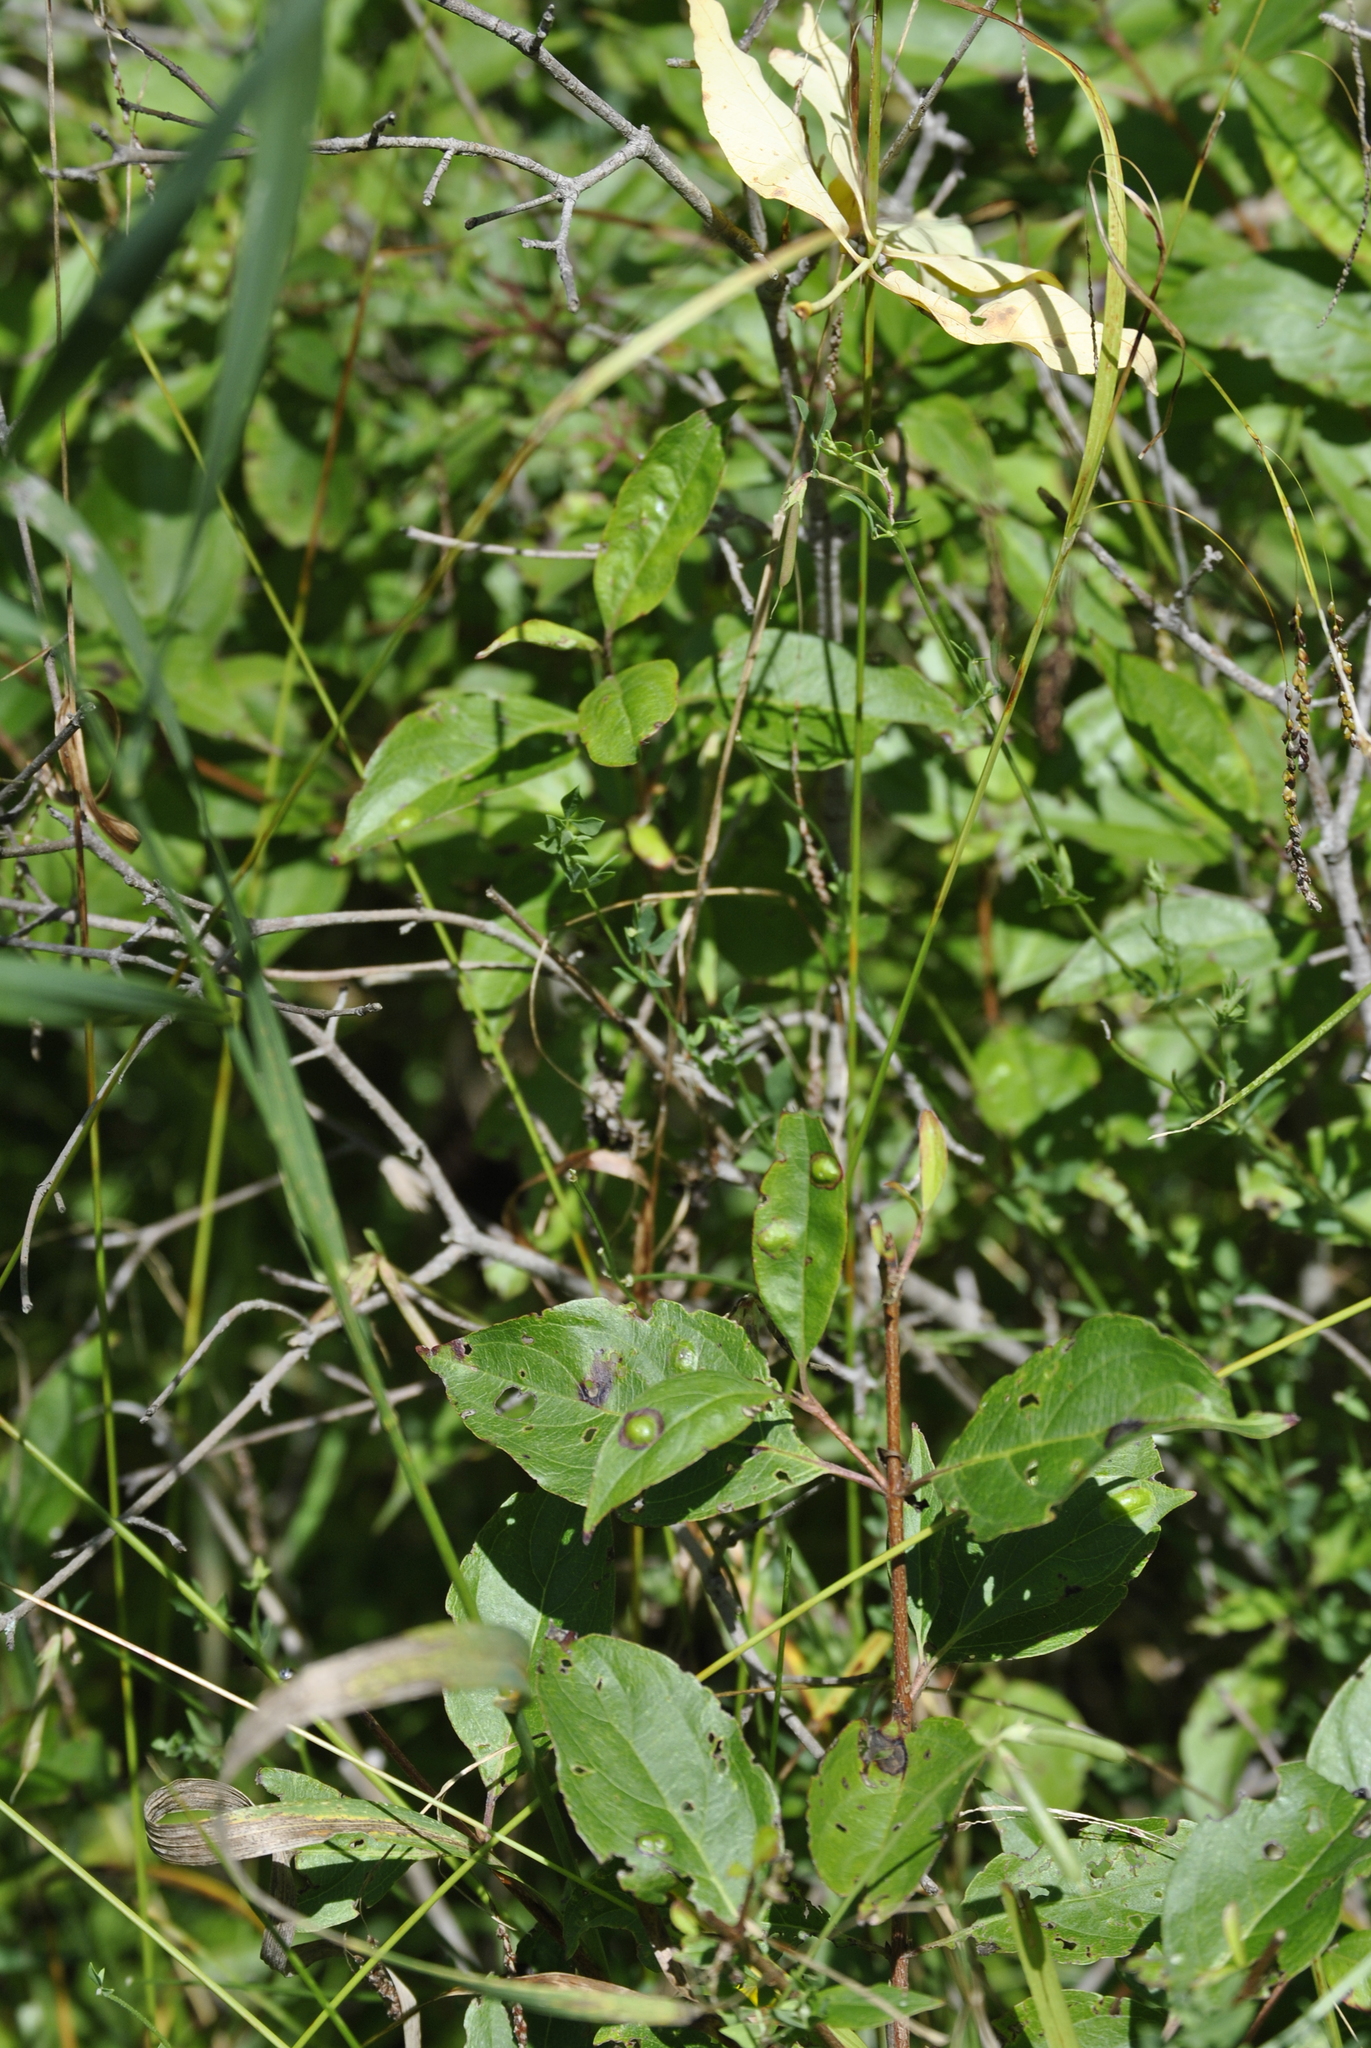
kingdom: Animalia
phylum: Arthropoda
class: Insecta
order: Diptera
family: Cecidomyiidae
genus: Parallelodiplosis
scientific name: Parallelodiplosis subtruncata
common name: Dogwood eyespot gall midge
